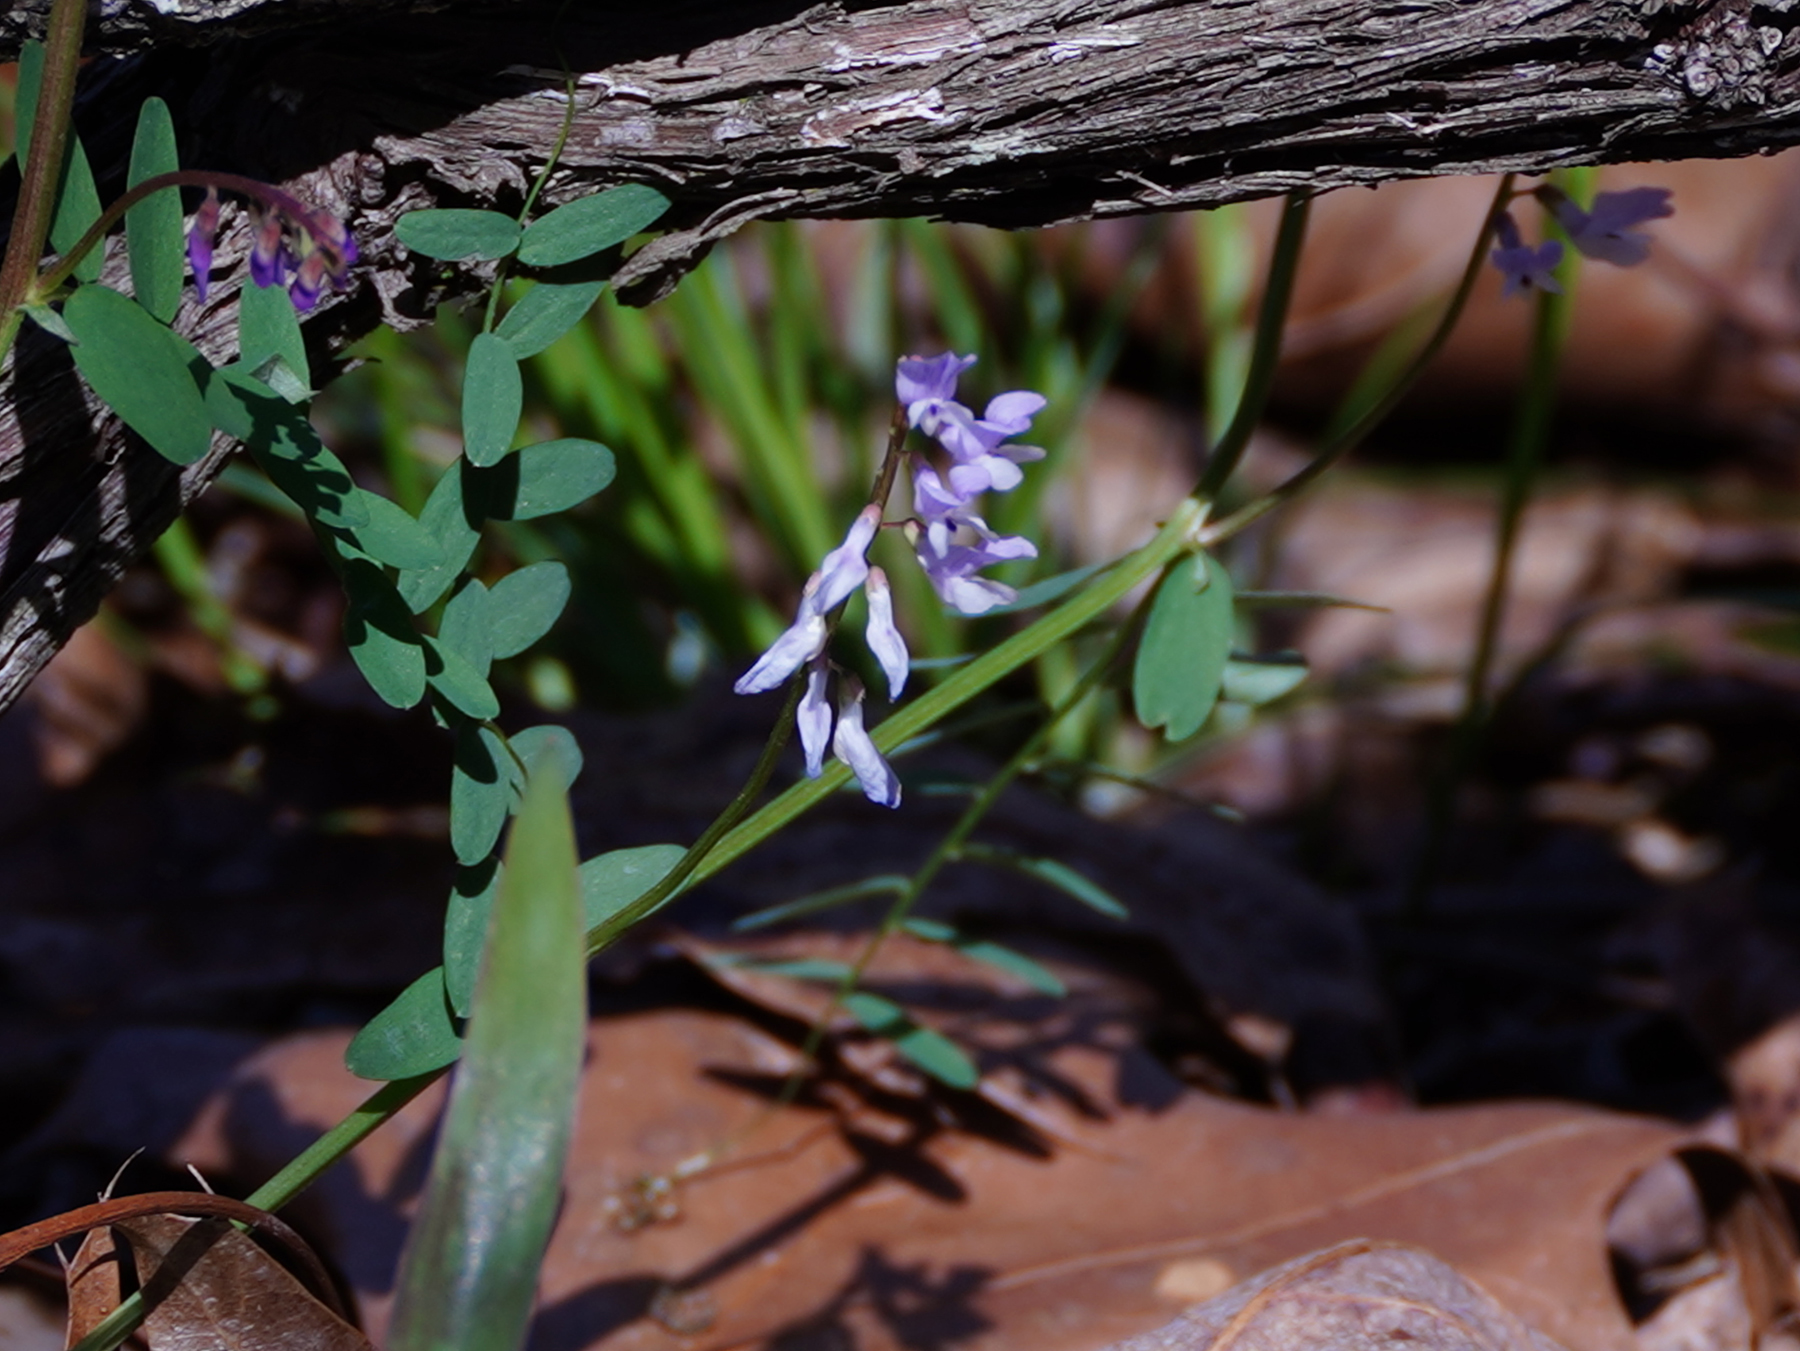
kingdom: Plantae
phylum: Tracheophyta
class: Magnoliopsida
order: Fabales
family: Fabaceae
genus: Vicia
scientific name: Vicia caroliniana
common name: Carolina vetch
